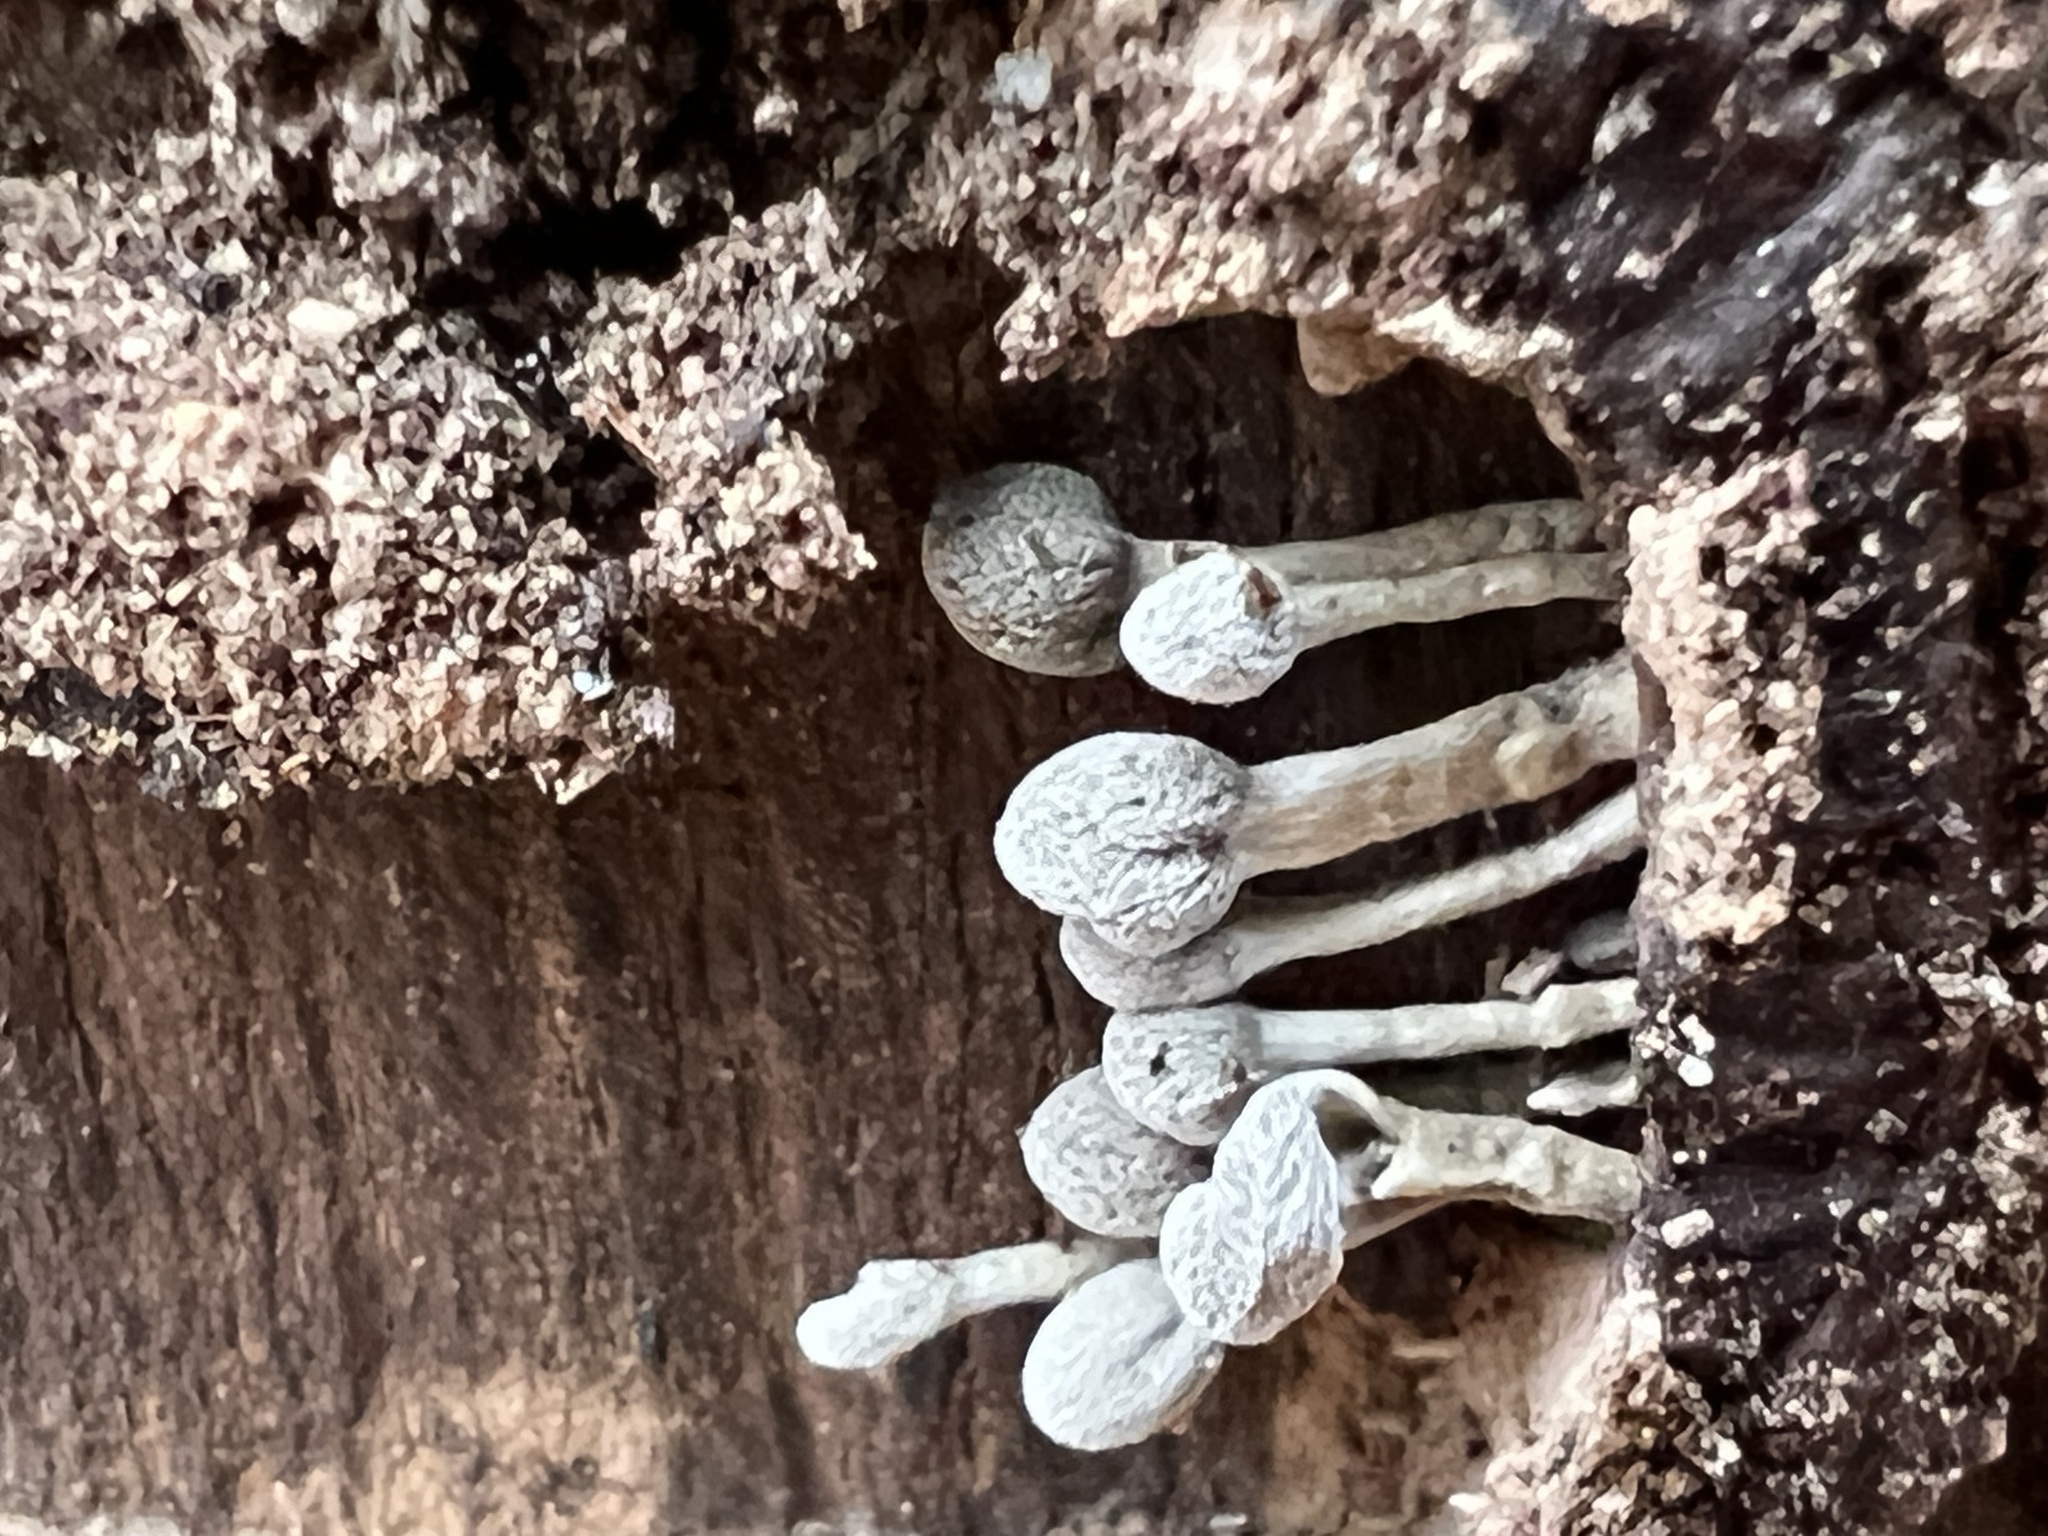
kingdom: Fungi
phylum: Basidiomycota
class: Atractiellomycetes
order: Atractiellales
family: Phleogenaceae
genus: Phleogena
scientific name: Phleogena faginea
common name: Fenugreek stalkball
